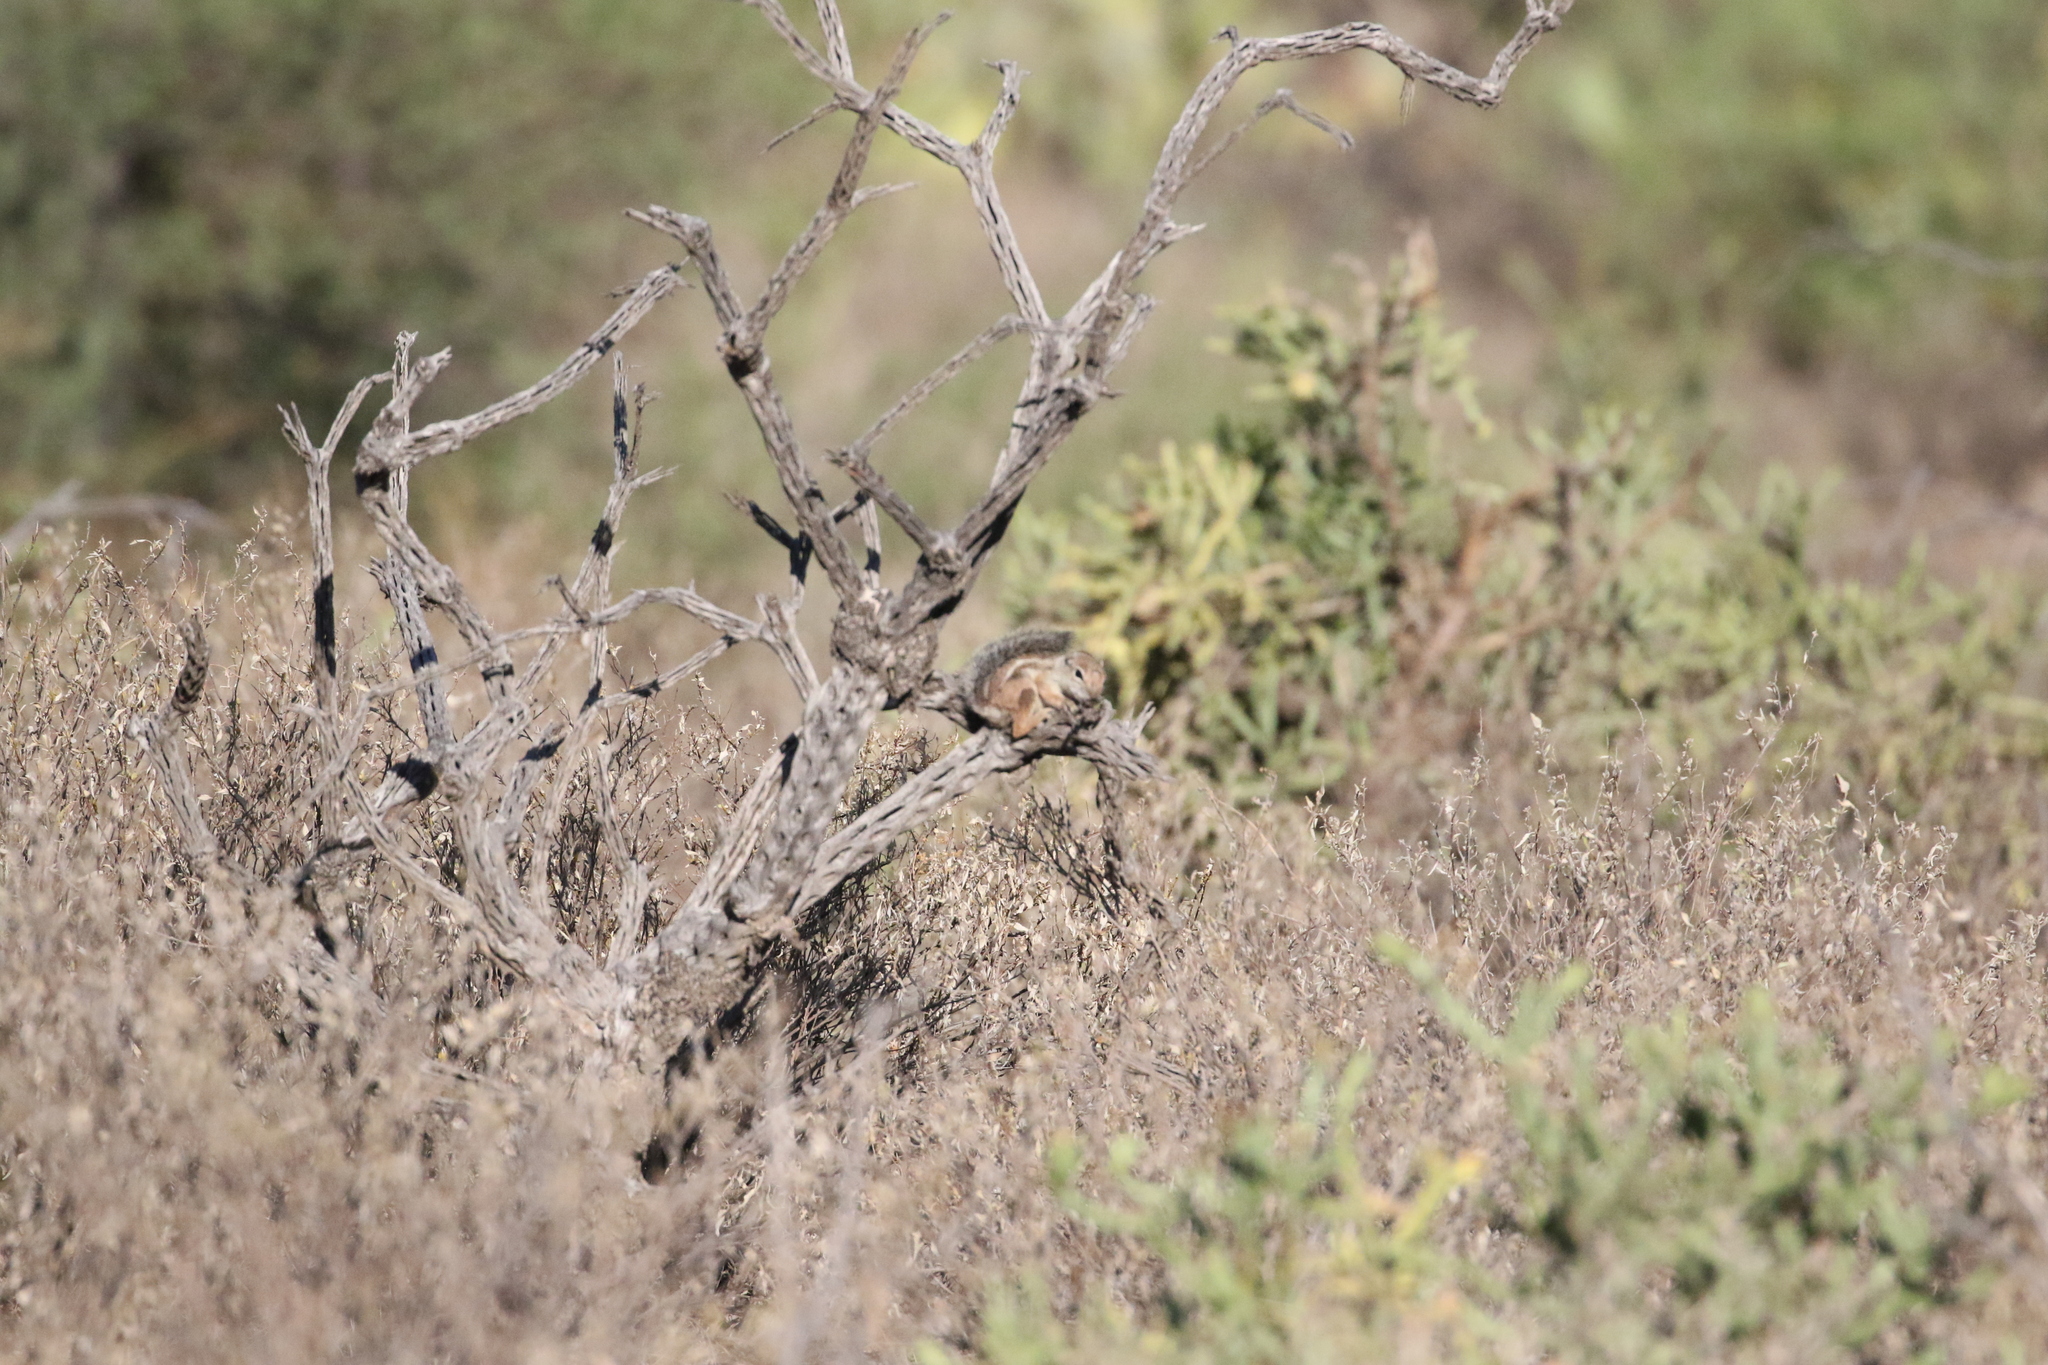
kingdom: Animalia
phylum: Chordata
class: Mammalia
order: Rodentia
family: Sciuridae
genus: Ammospermophilus
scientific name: Ammospermophilus harrisii
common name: Harris's antelope squirrel
